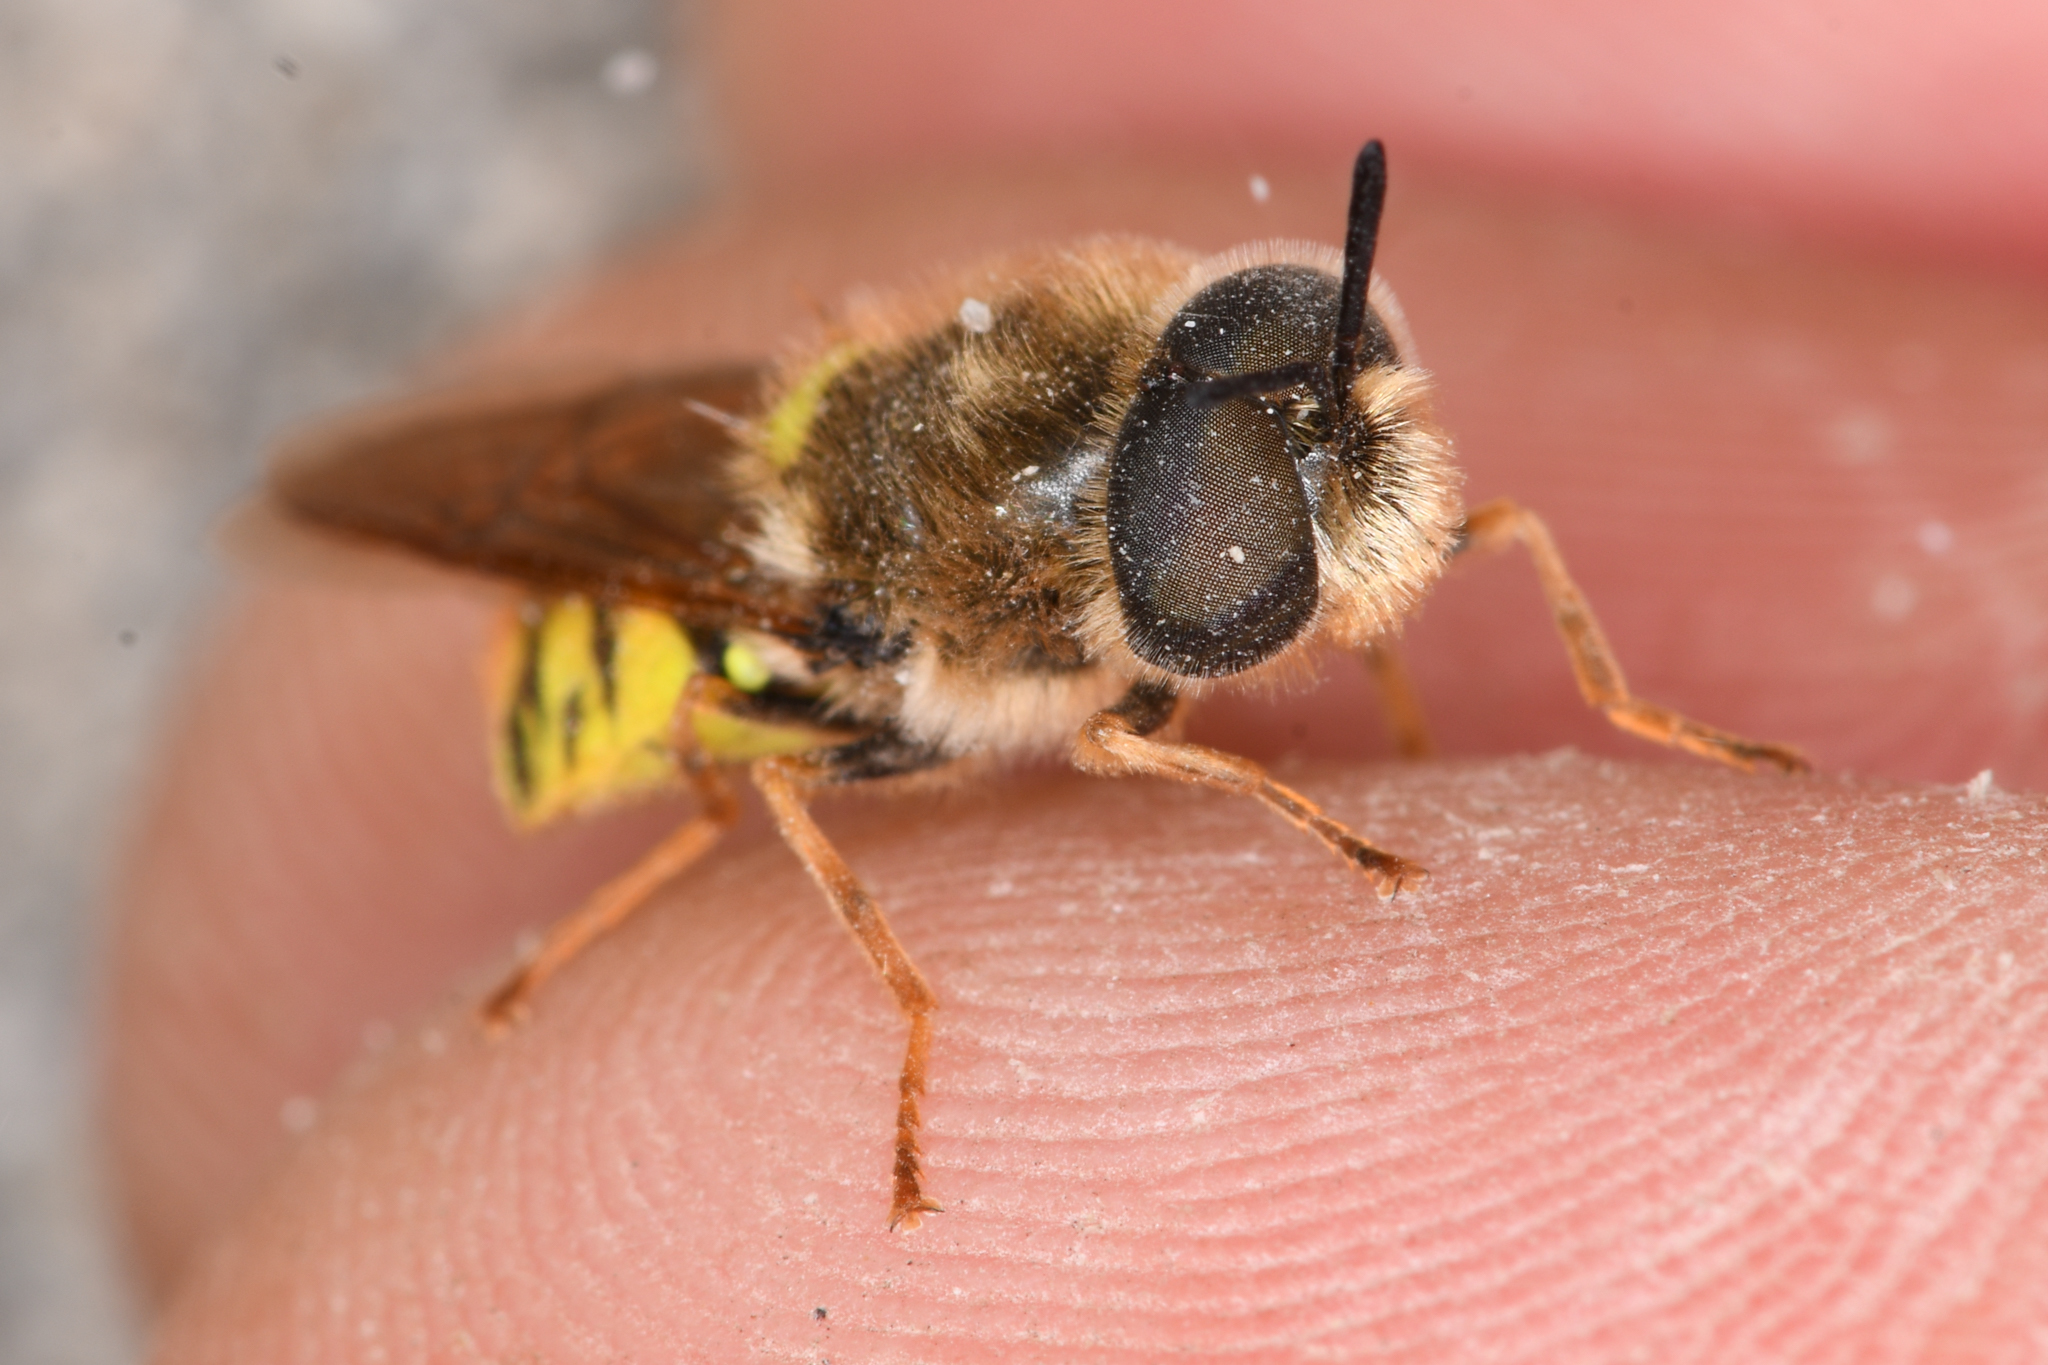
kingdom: Animalia
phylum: Arthropoda
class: Insecta
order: Diptera
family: Stratiomyidae
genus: Stratiomys
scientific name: Stratiomys maculosa
